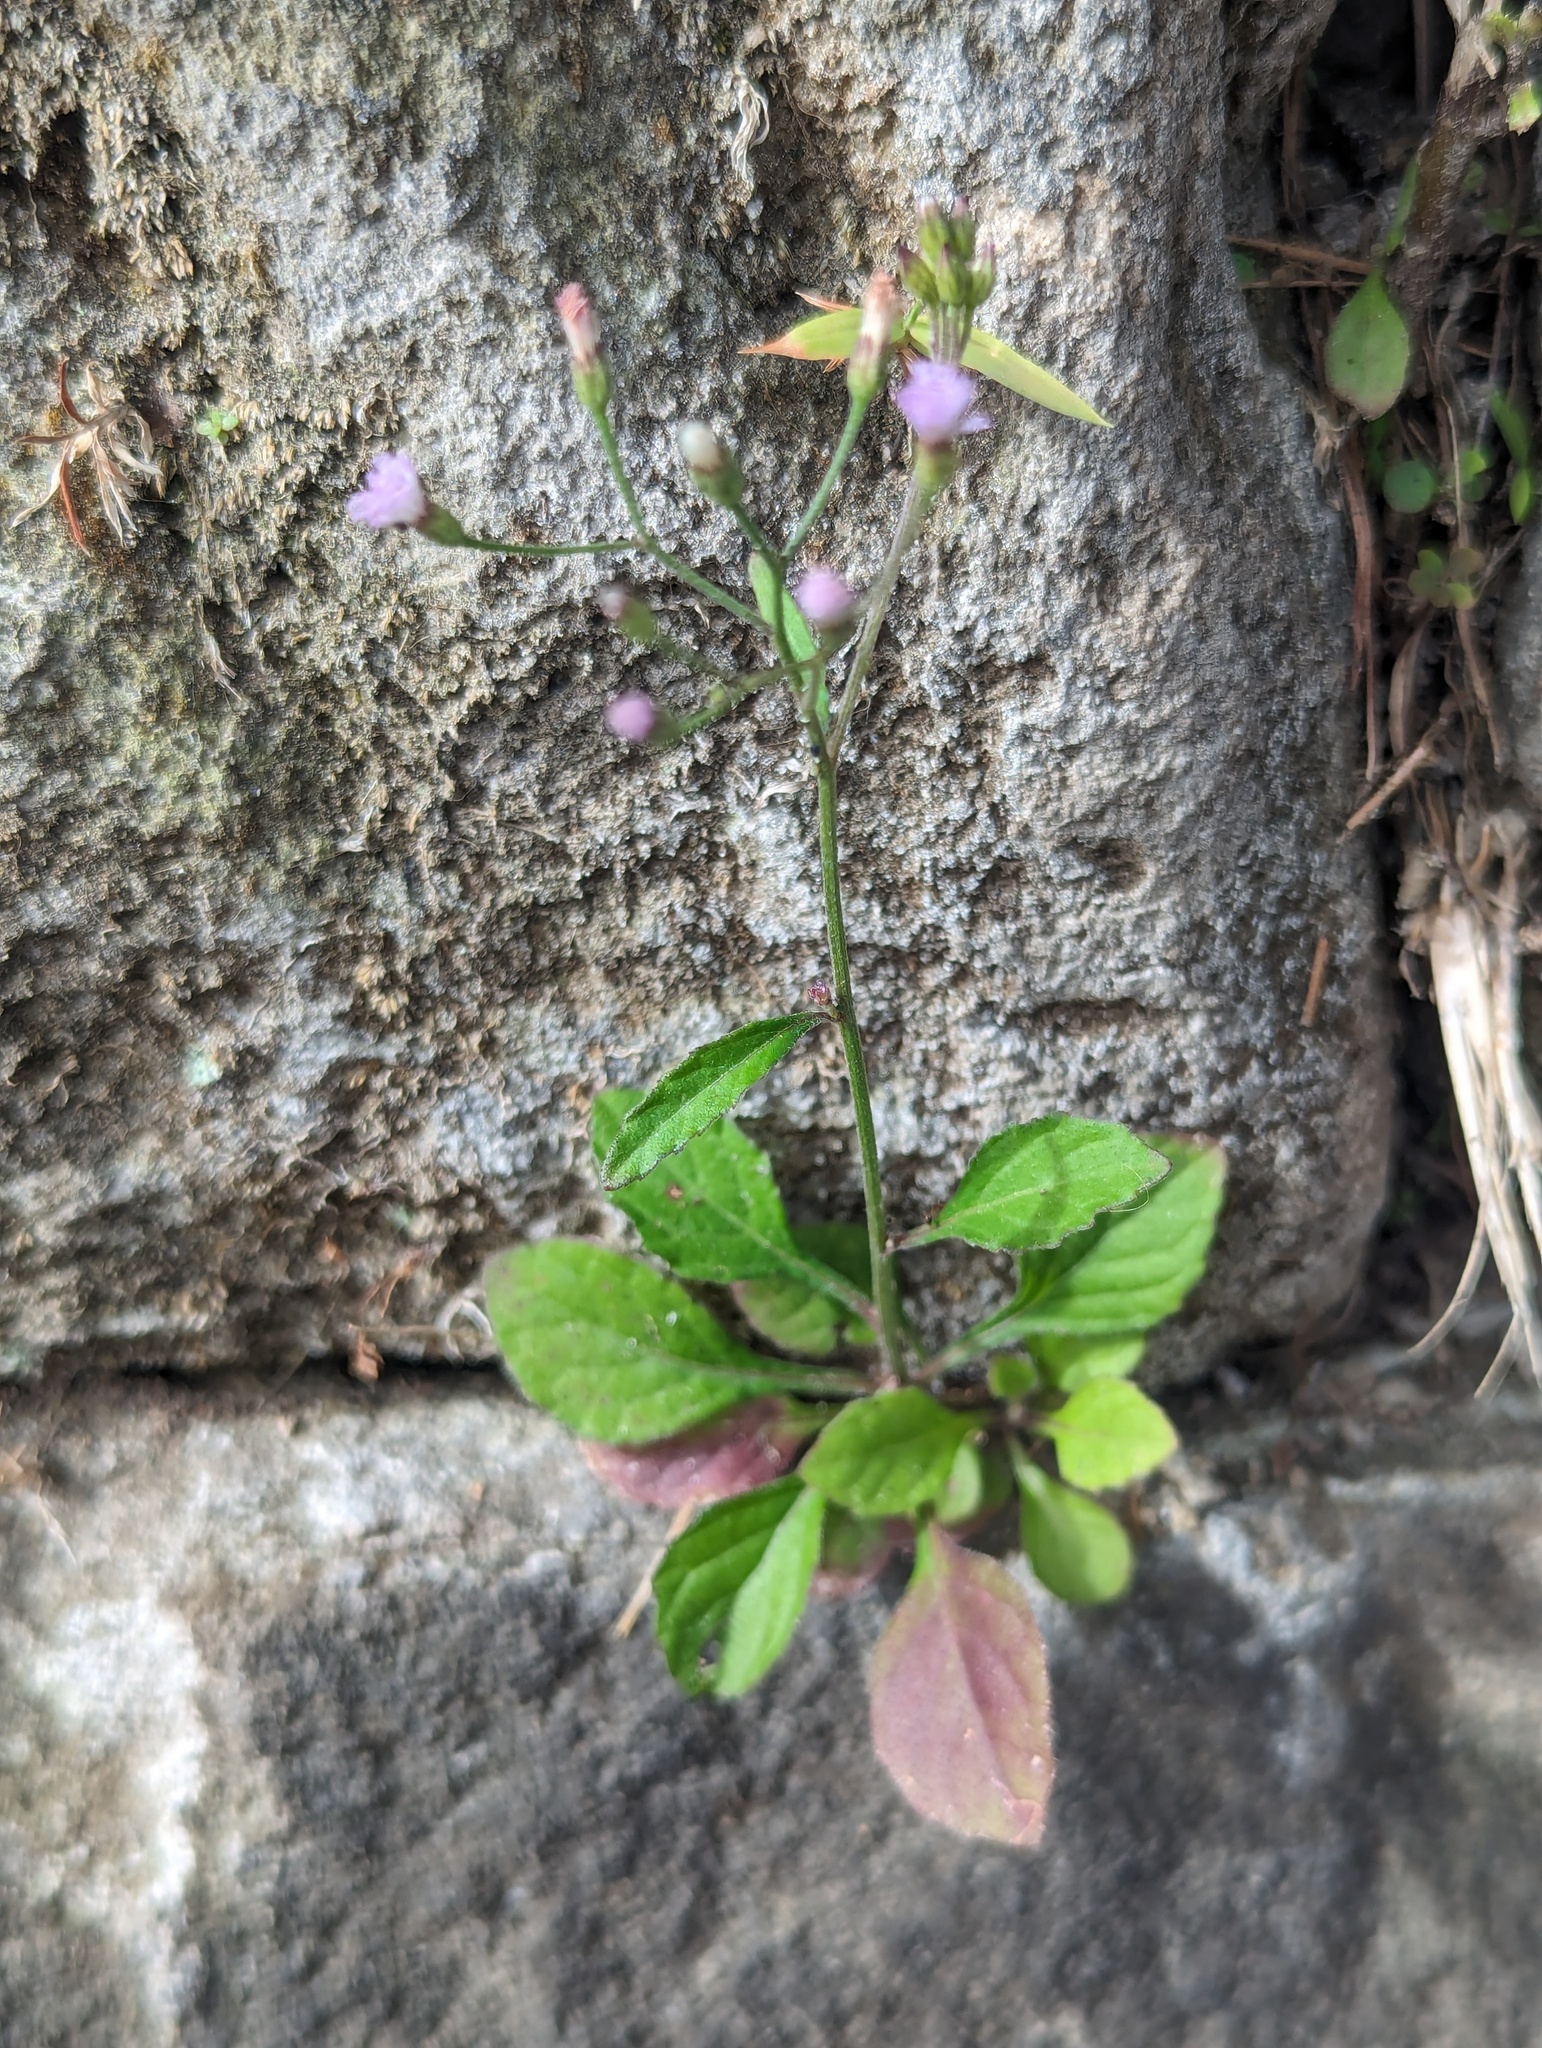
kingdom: Plantae
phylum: Tracheophyta
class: Magnoliopsida
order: Asterales
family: Asteraceae
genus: Cyanthillium
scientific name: Cyanthillium cinereum
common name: Little ironweed
